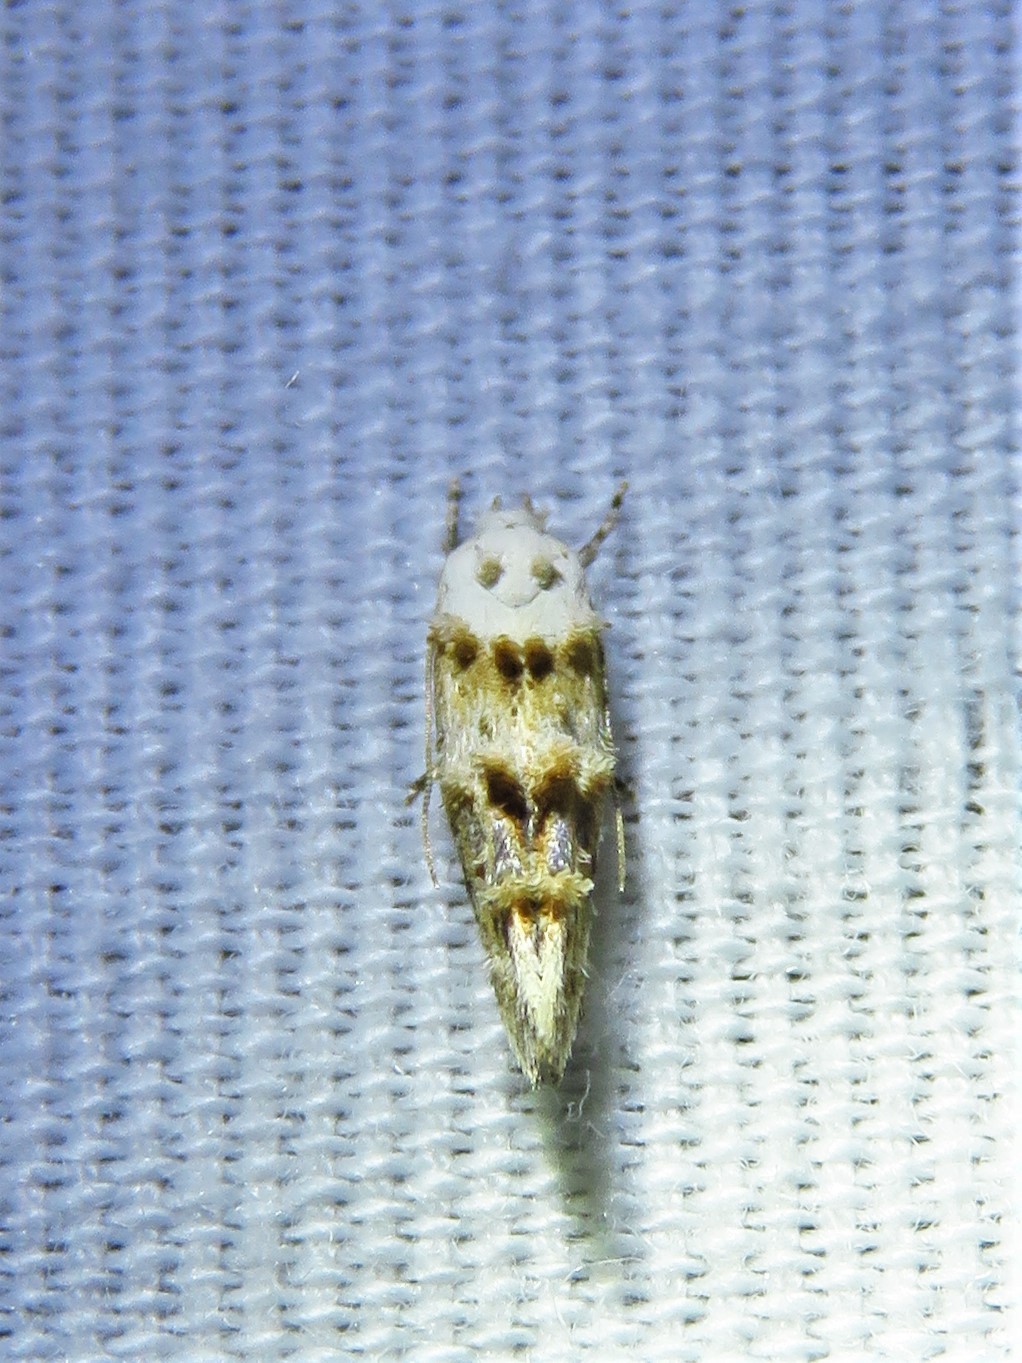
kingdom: Animalia
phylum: Arthropoda
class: Insecta
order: Lepidoptera
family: Momphidae
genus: Mompha
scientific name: Mompha albocapitella
